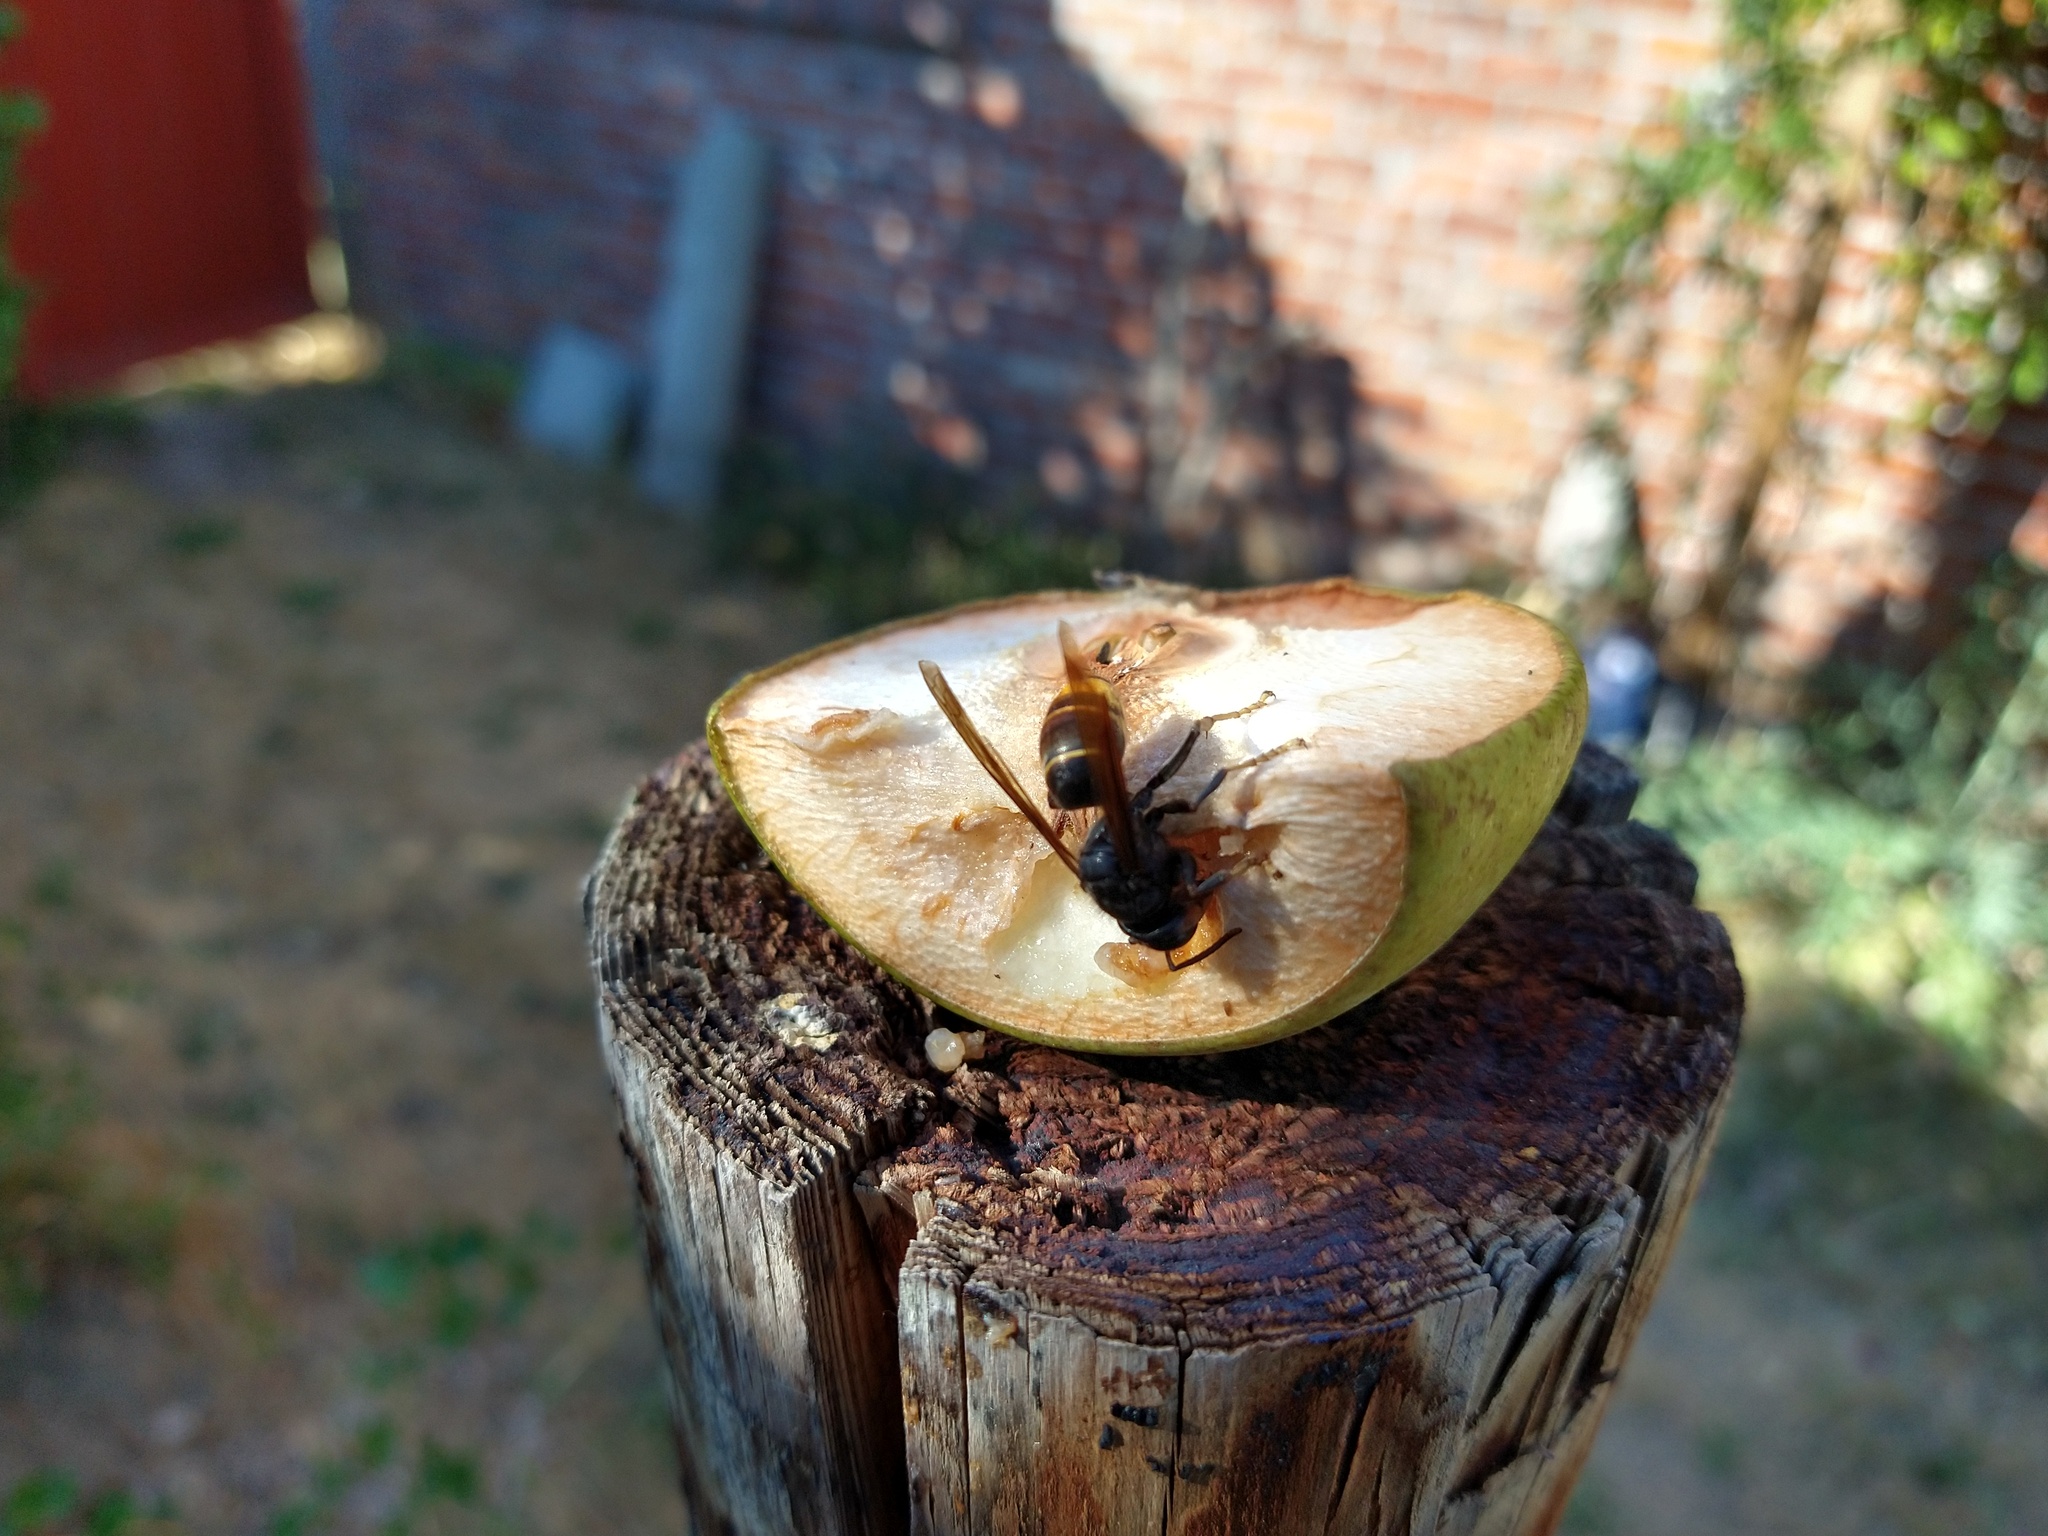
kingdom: Animalia
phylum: Arthropoda
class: Insecta
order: Hymenoptera
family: Vespidae
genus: Vespa
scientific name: Vespa velutina
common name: Asian hornet
